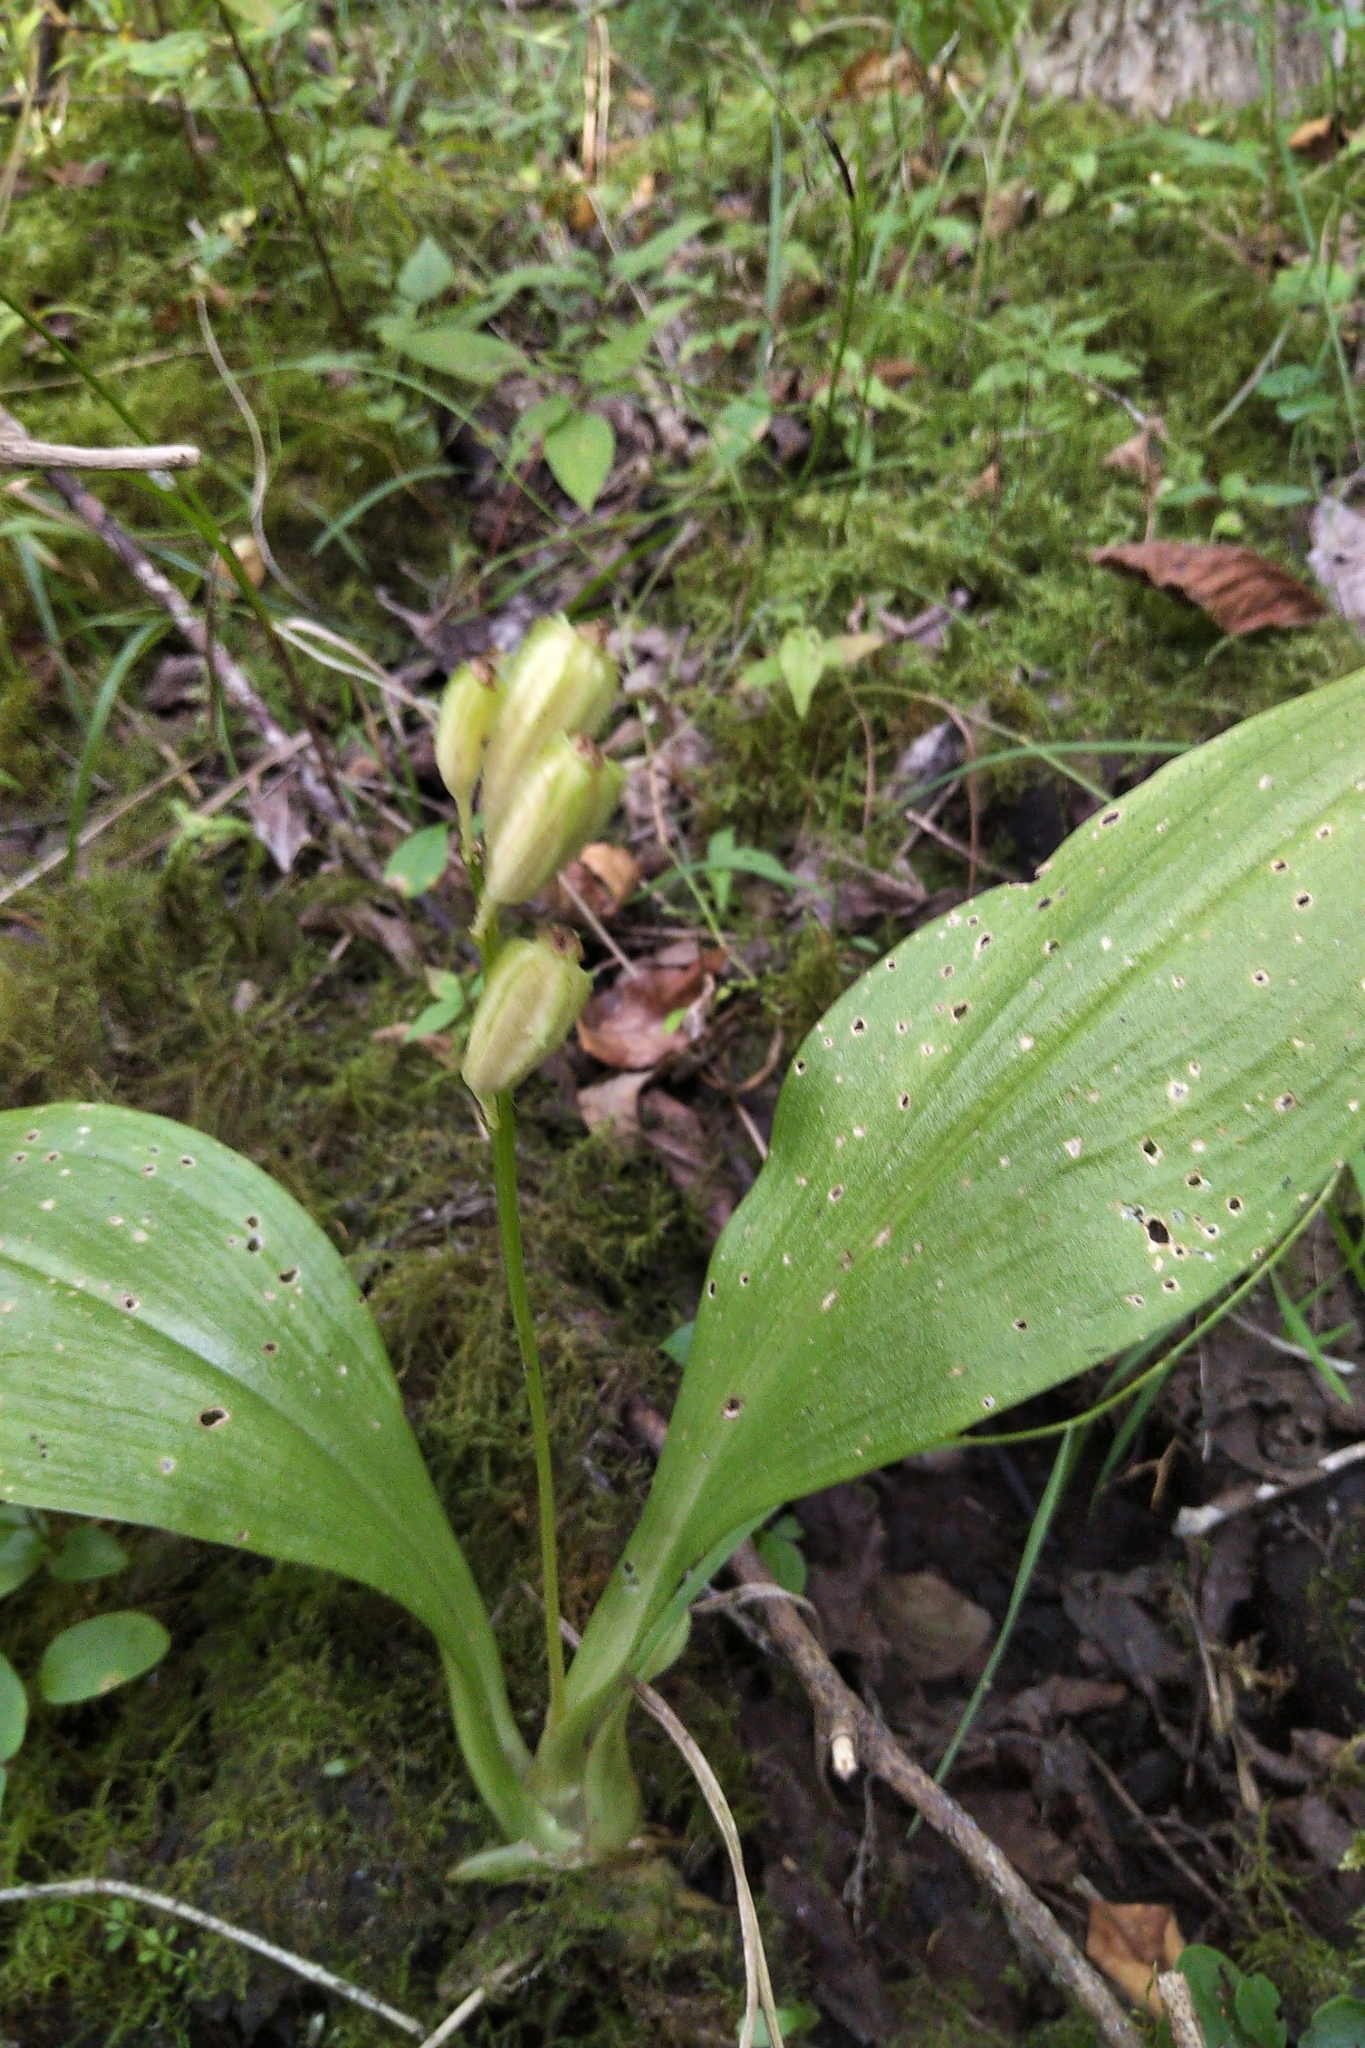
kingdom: Animalia
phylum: Arthropoda
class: Insecta
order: Coleoptera
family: Curculionidae
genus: Liparis
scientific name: Liparis loeselii
